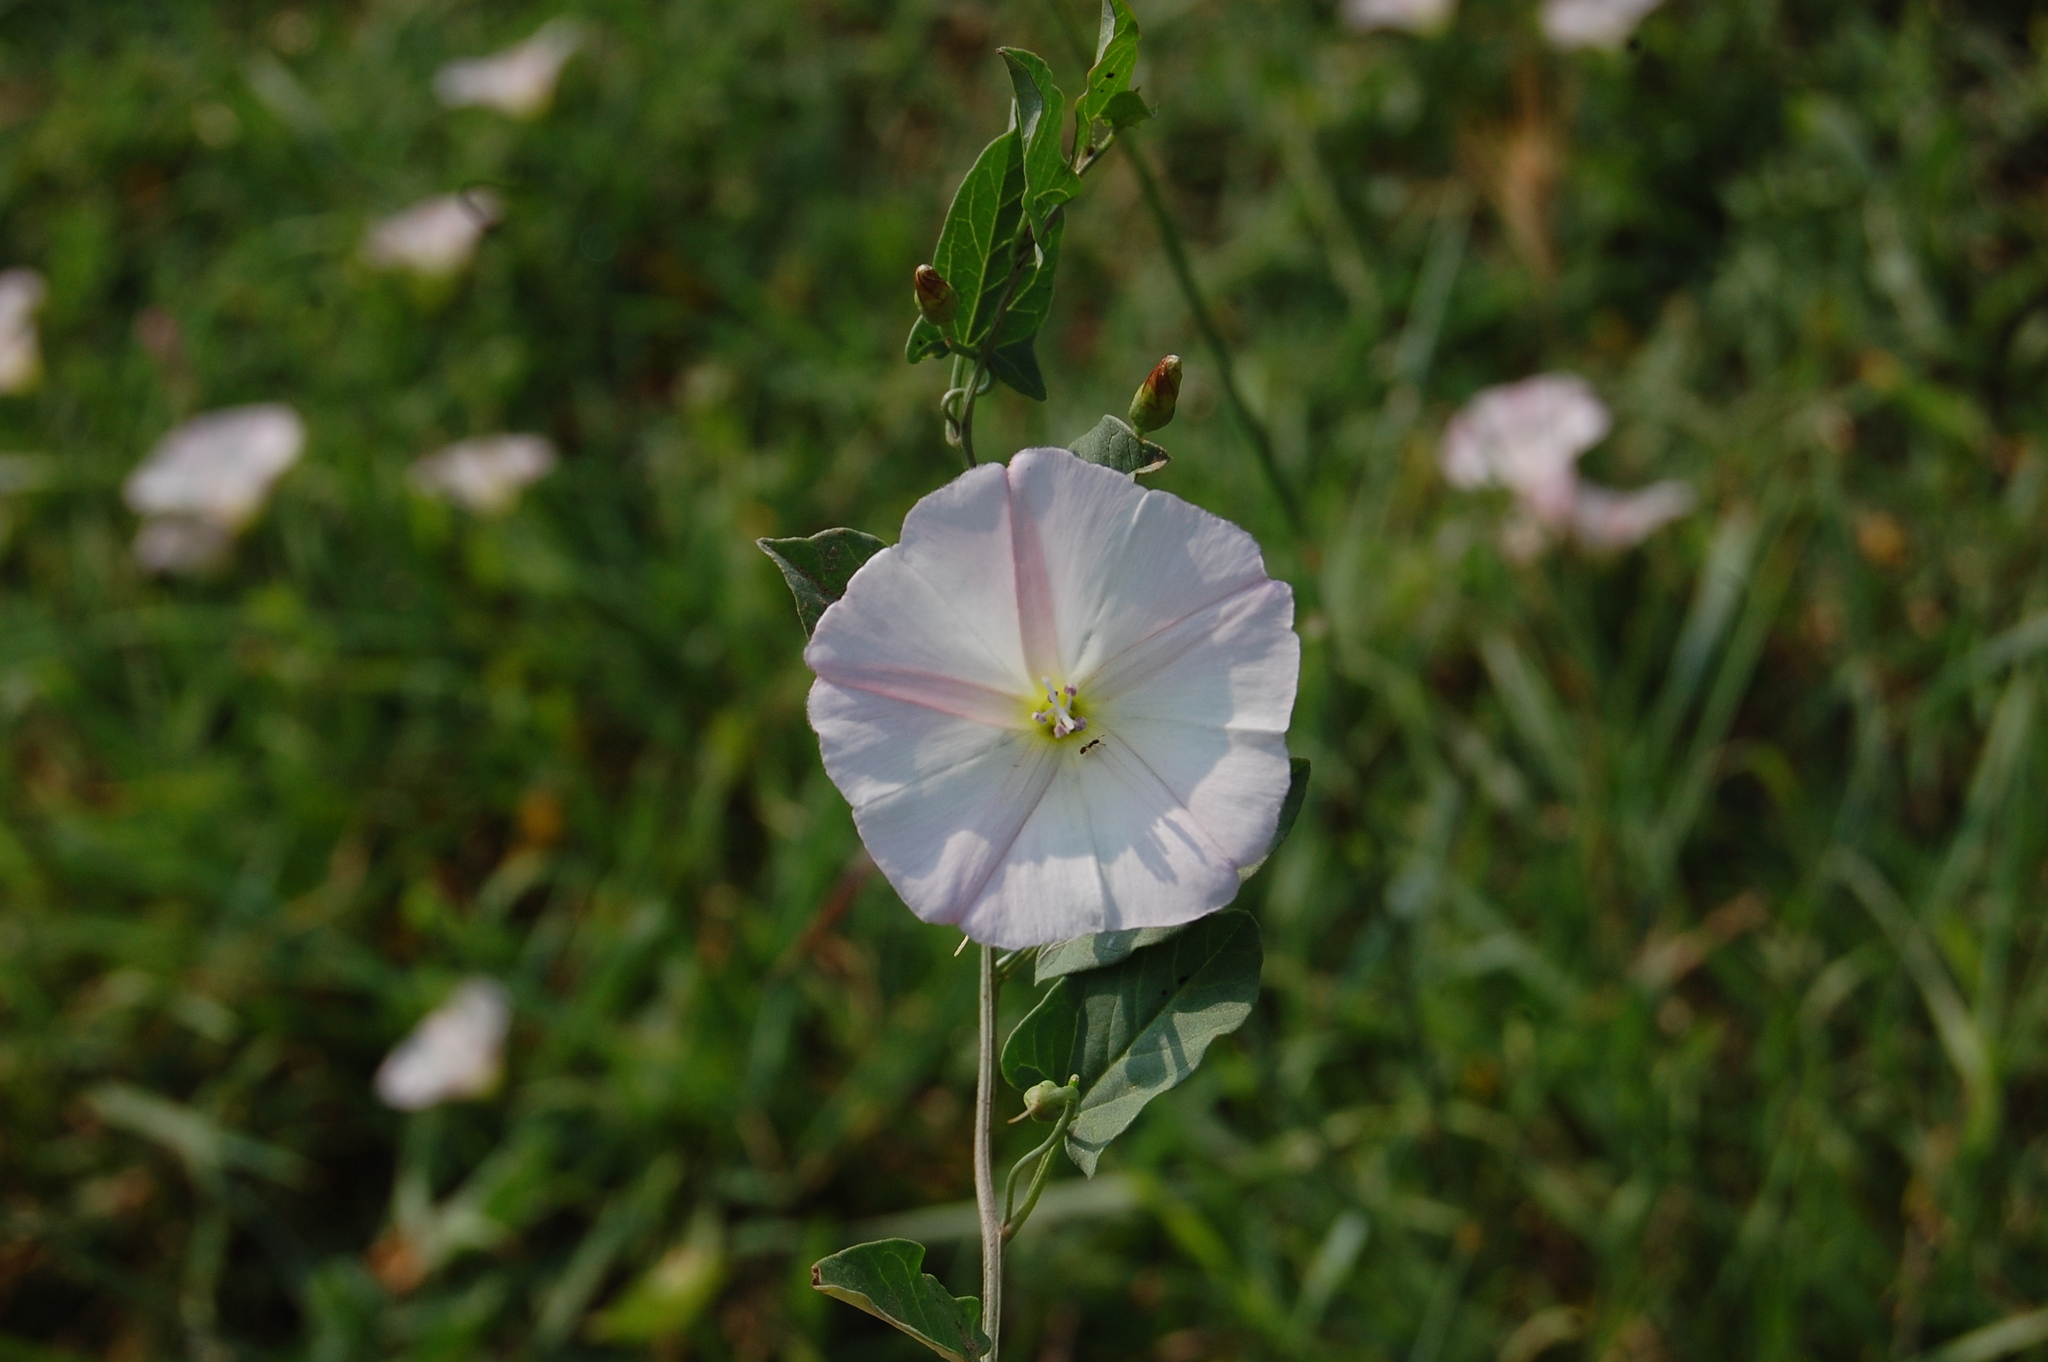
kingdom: Plantae
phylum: Tracheophyta
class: Magnoliopsida
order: Solanales
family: Convolvulaceae
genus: Convolvulus
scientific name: Convolvulus arvensis
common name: Field bindweed
